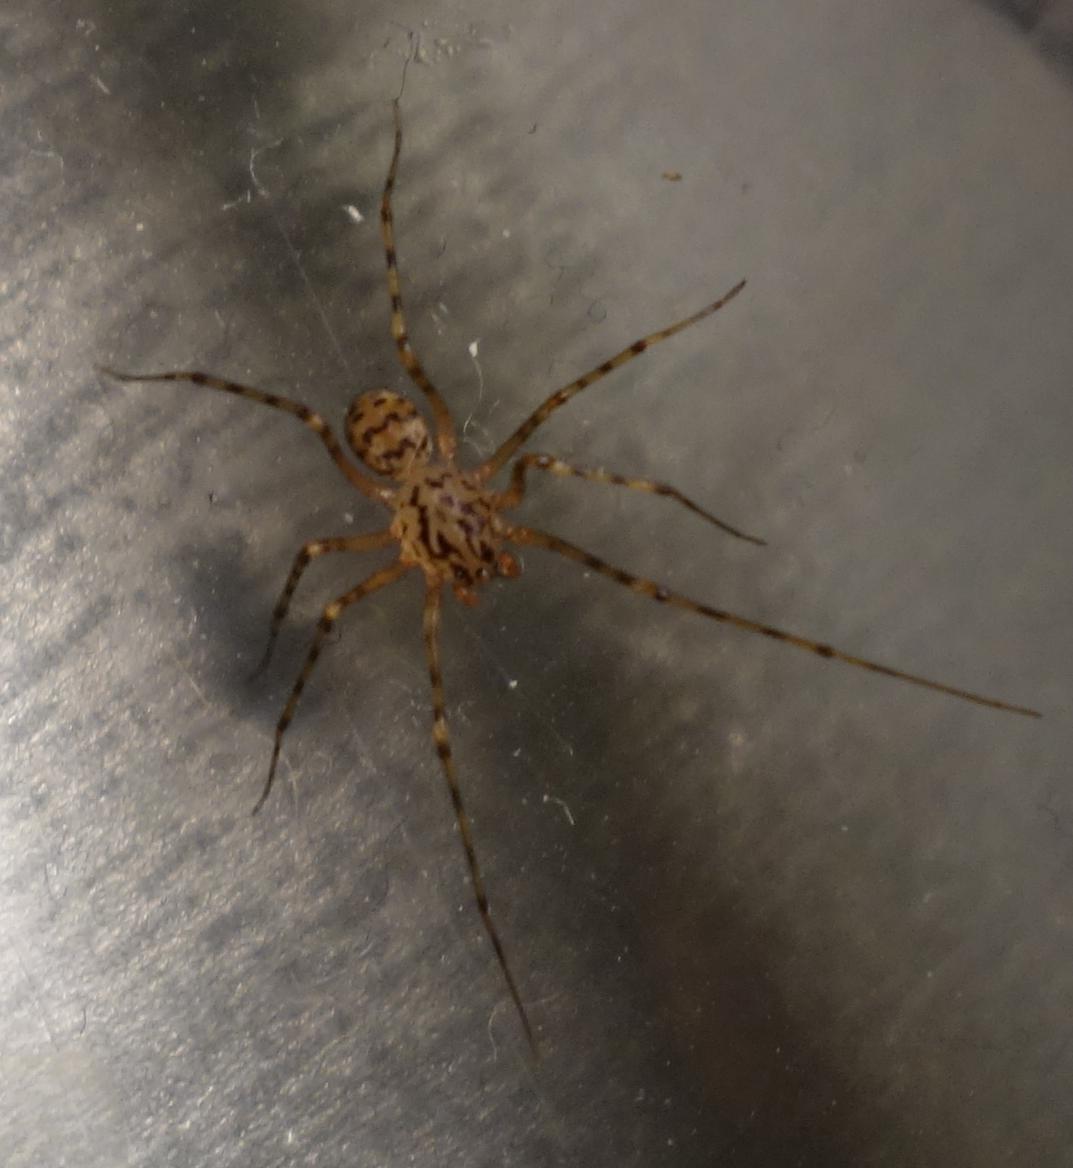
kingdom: Animalia
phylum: Arthropoda
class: Arachnida
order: Araneae
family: Scytodidae
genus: Scytodes
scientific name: Scytodes thoracica
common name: Spitting spider
